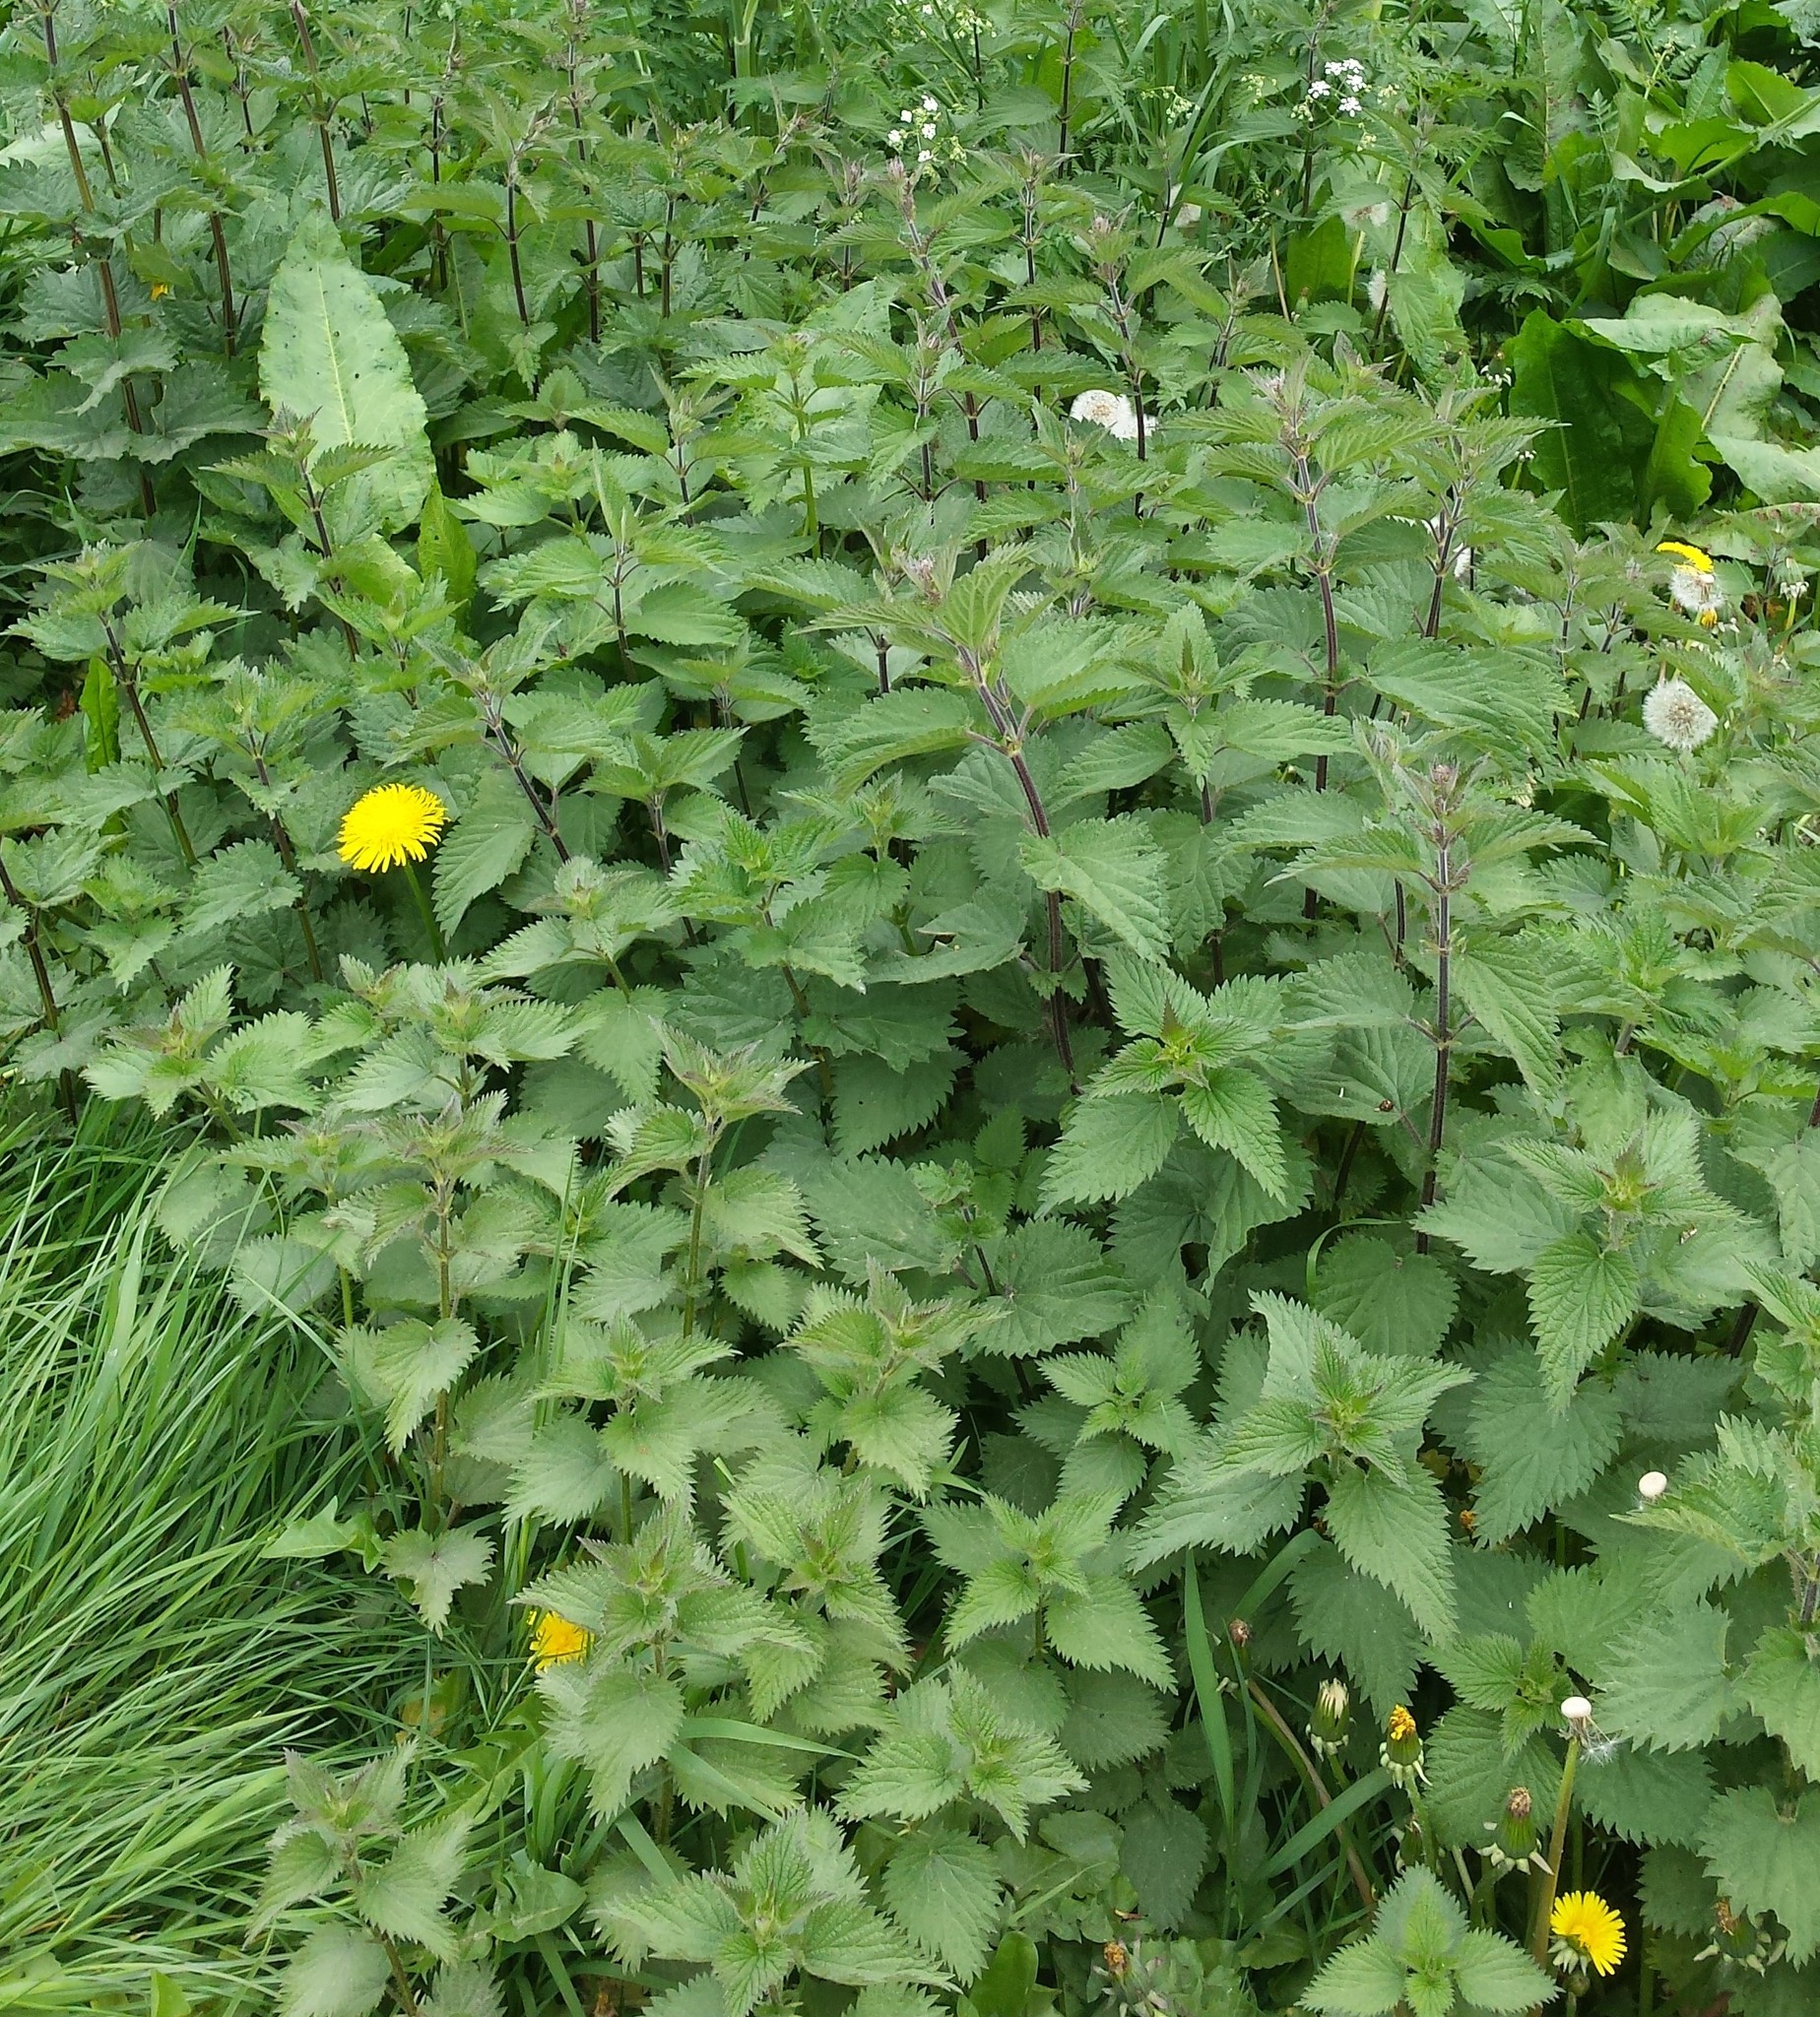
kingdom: Plantae
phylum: Tracheophyta
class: Magnoliopsida
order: Rosales
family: Urticaceae
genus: Urtica
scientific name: Urtica dioica
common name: Common nettle
